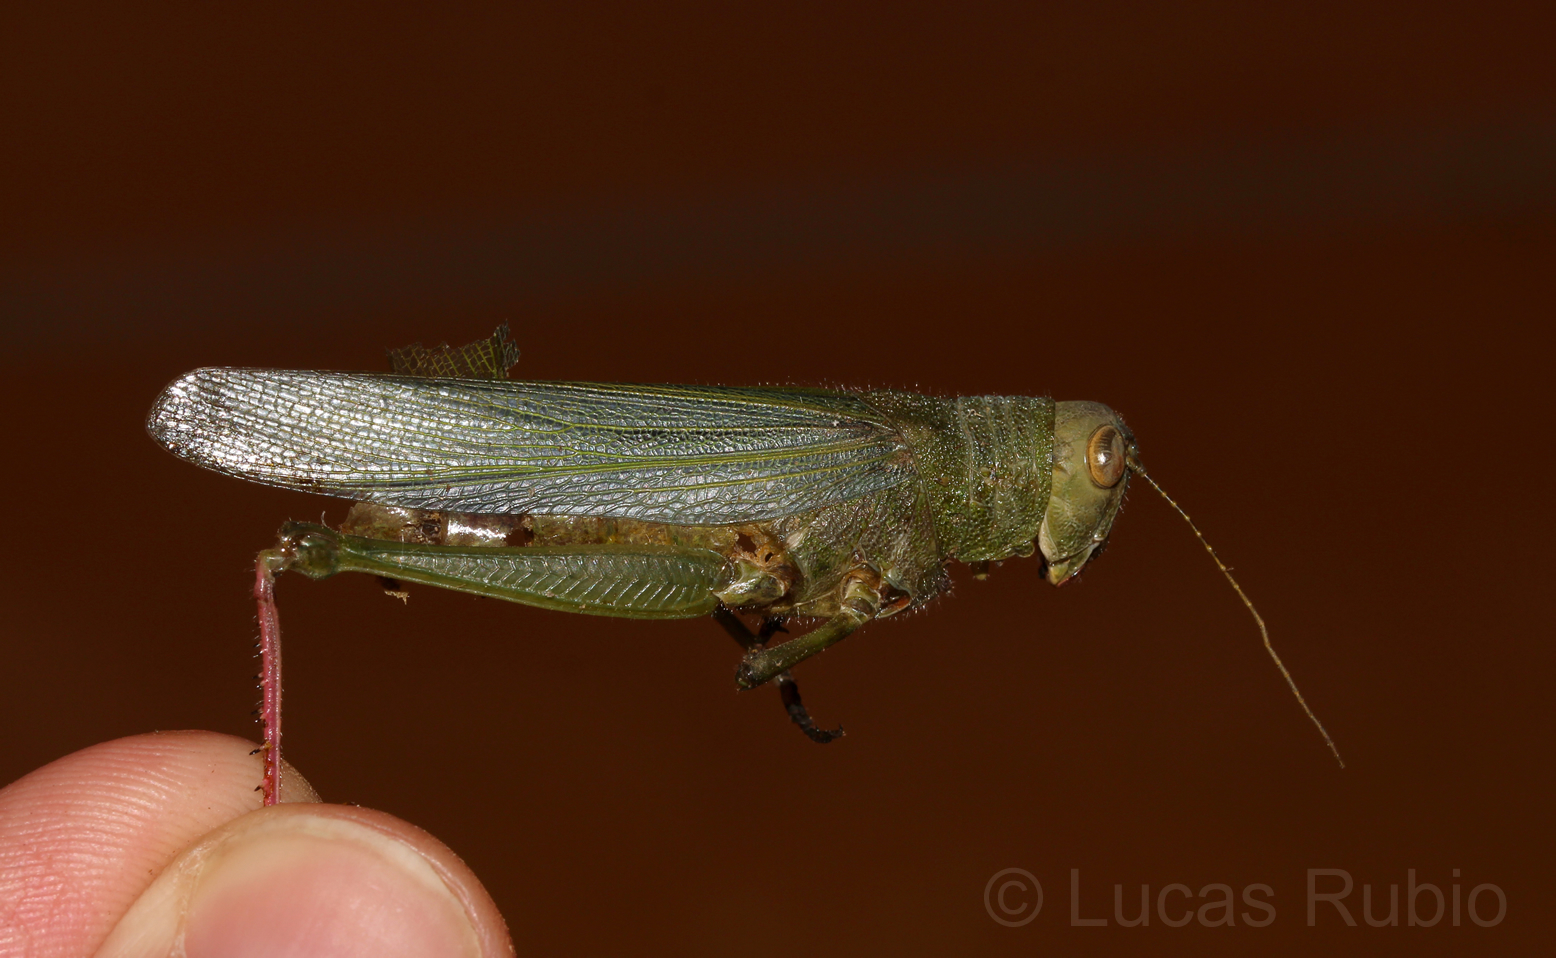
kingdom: Animalia
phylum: Arthropoda
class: Insecta
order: Orthoptera
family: Romaleidae
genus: Zoniopoda
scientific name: Zoniopoda hempeli
